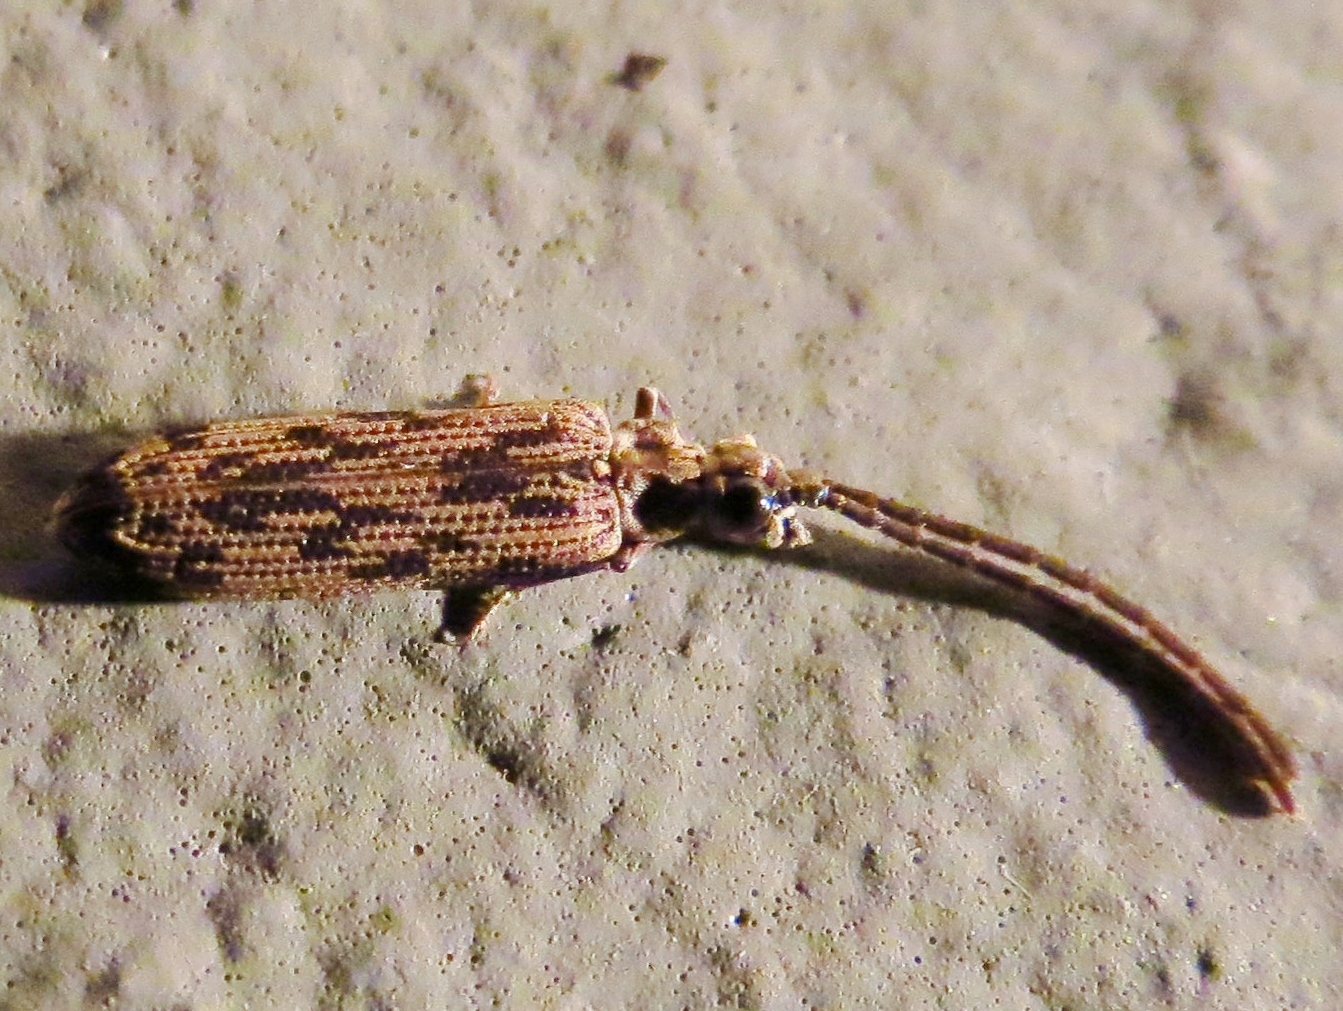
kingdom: Animalia
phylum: Arthropoda
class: Insecta
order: Coleoptera
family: Cupedidae
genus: Tenomerga
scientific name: Tenomerga cinerea
